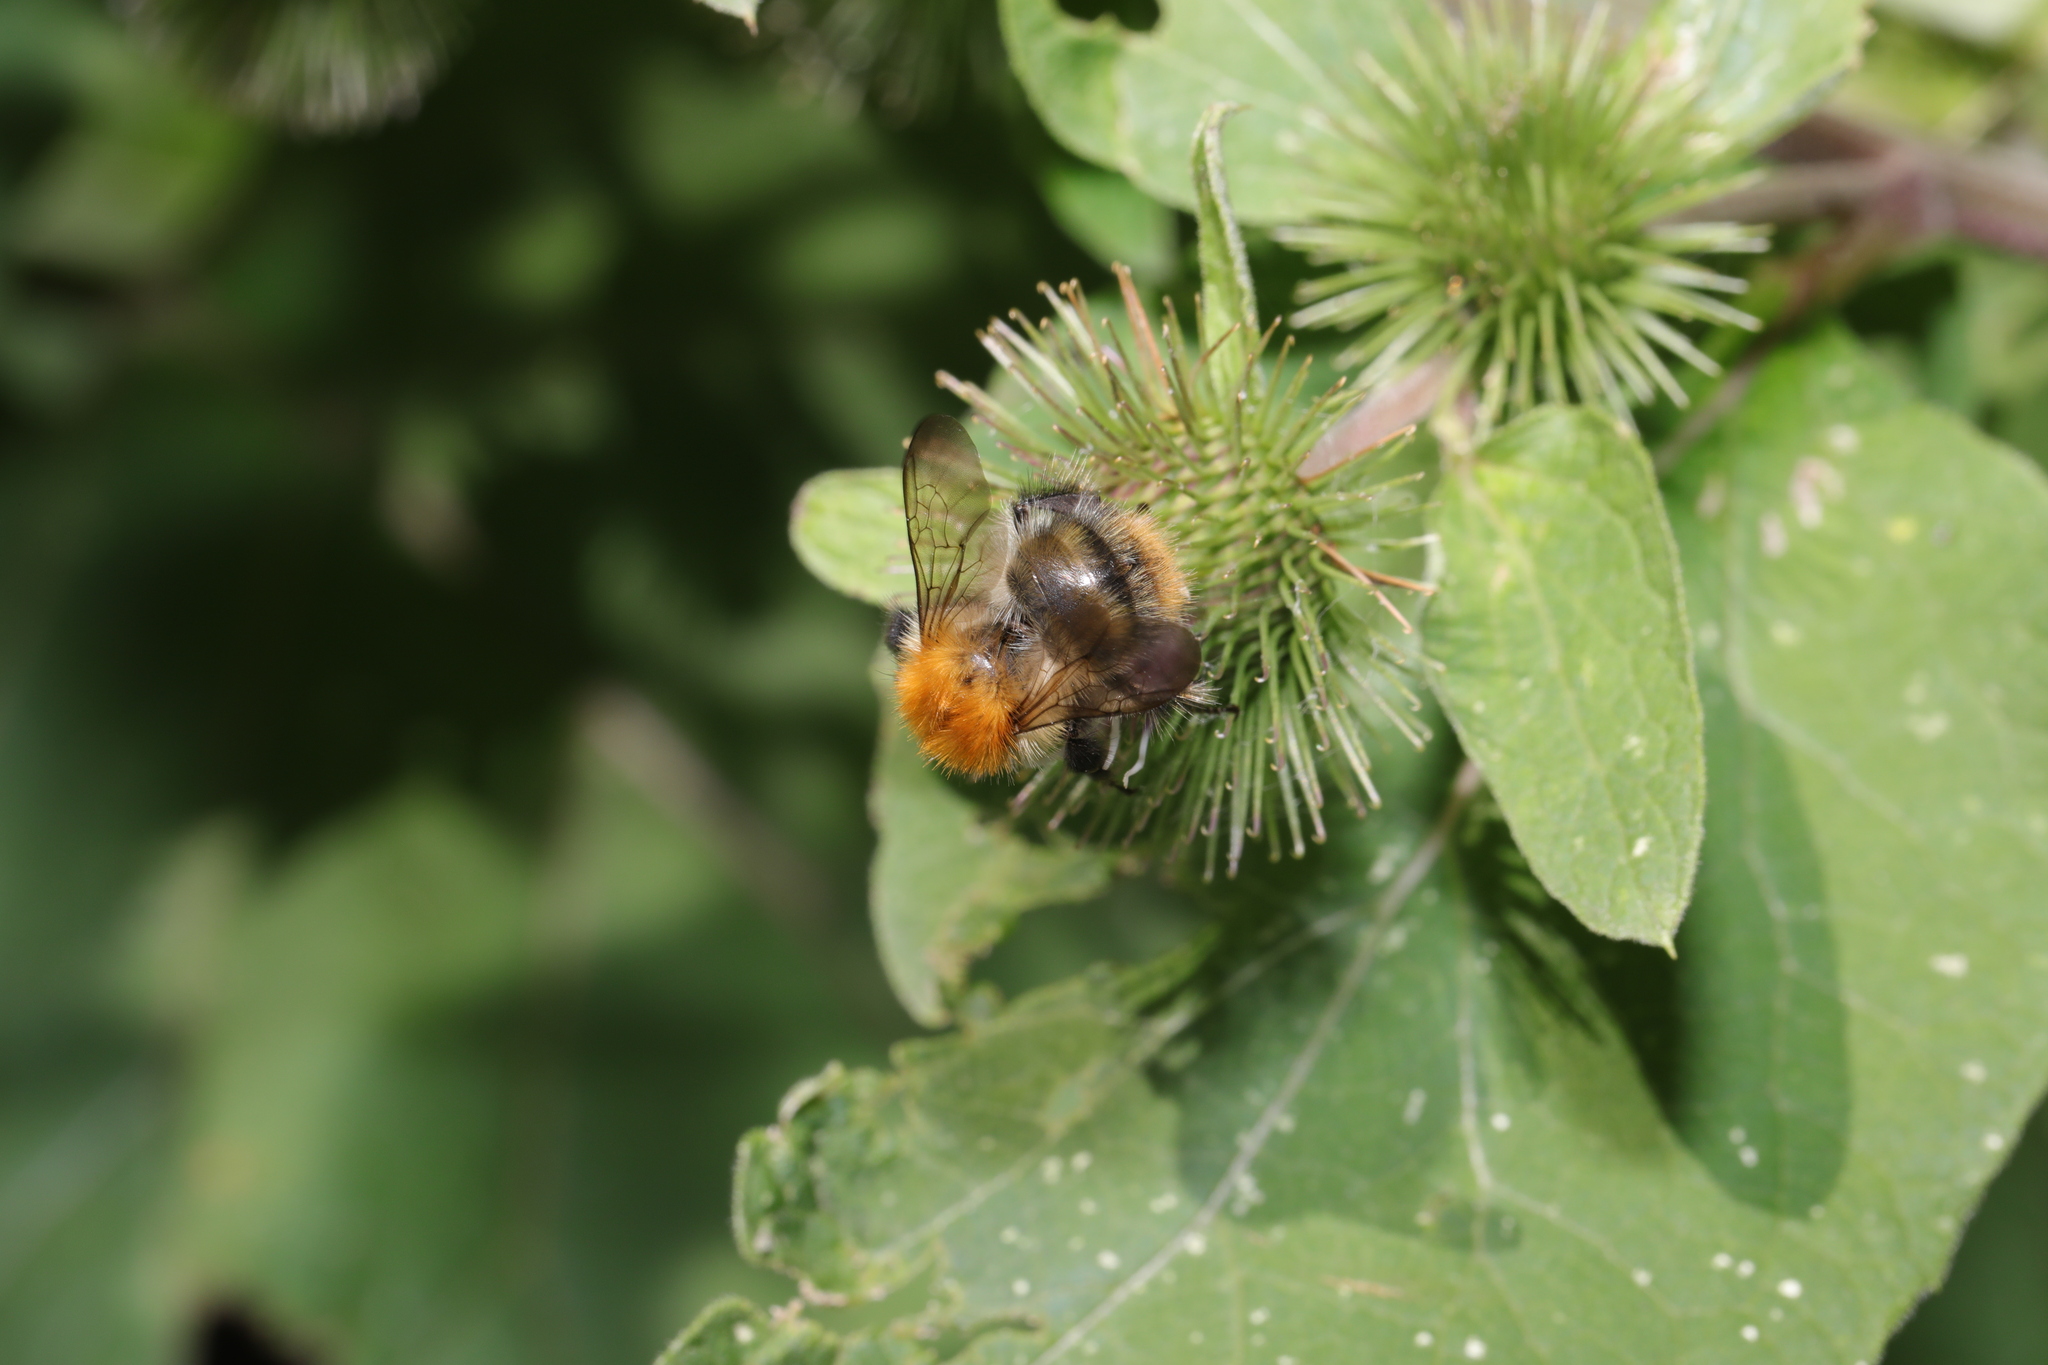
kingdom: Animalia
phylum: Arthropoda
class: Insecta
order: Hymenoptera
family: Apidae
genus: Bombus
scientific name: Bombus pascuorum
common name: Common carder bee
